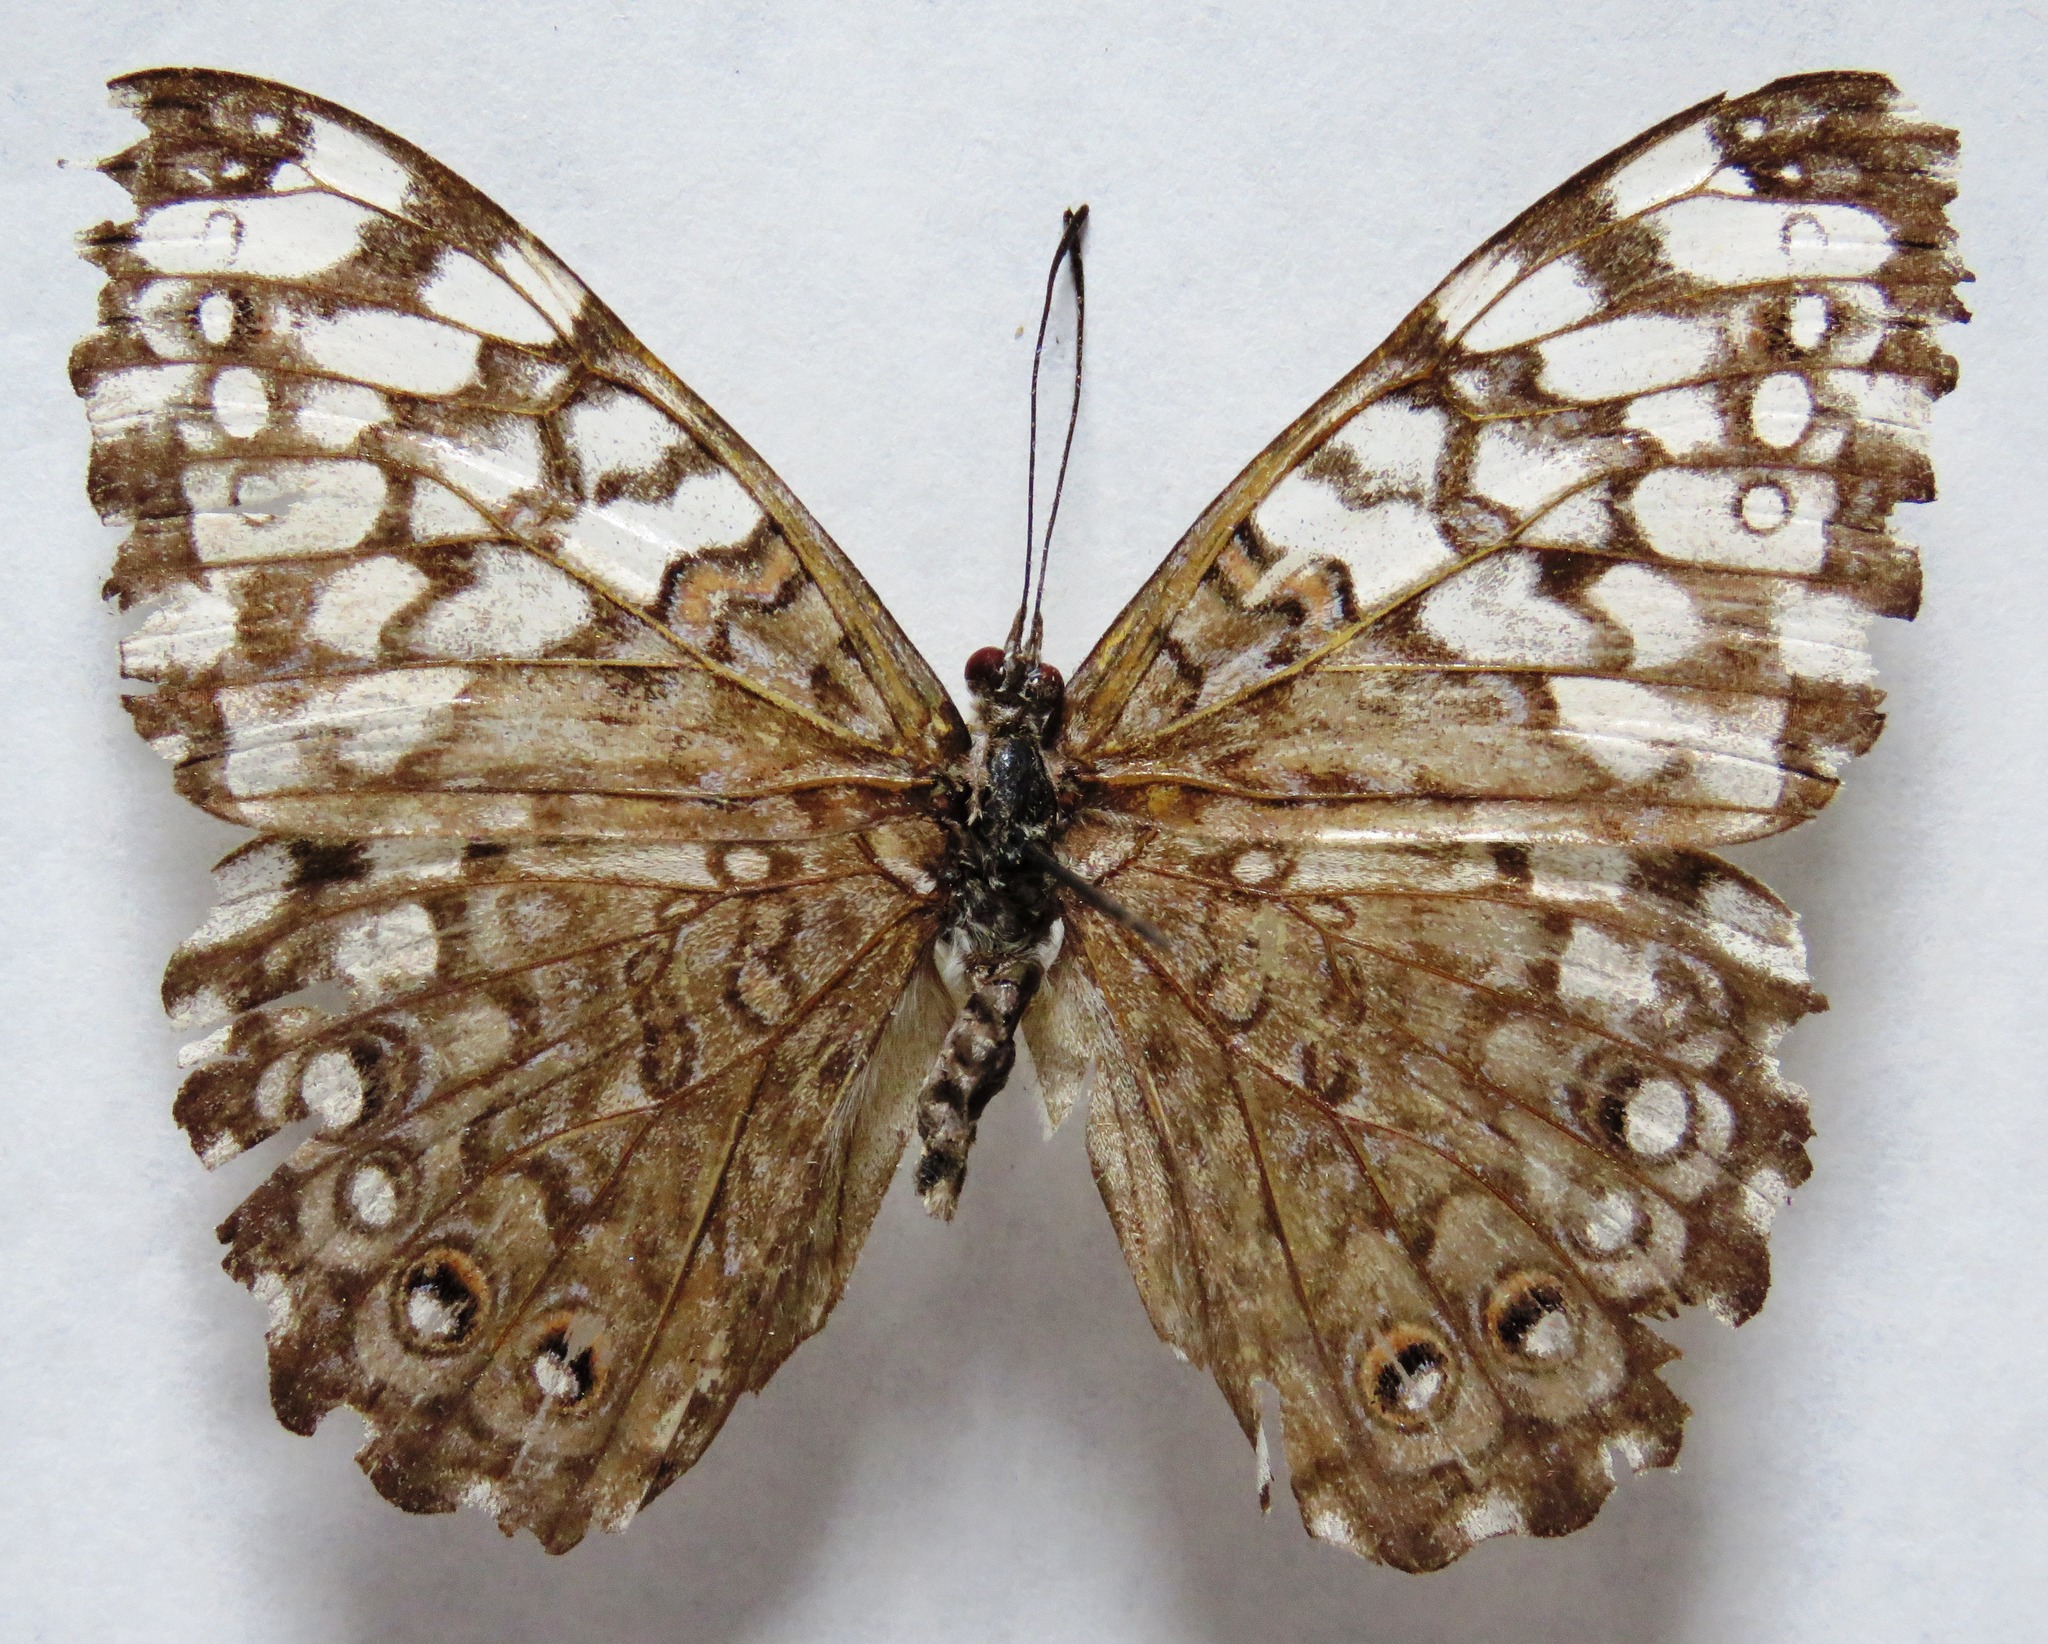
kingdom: Animalia
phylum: Arthropoda
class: Insecta
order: Lepidoptera
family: Nymphalidae
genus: Hamadryas
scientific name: Hamadryas februa
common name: Gray cracker
